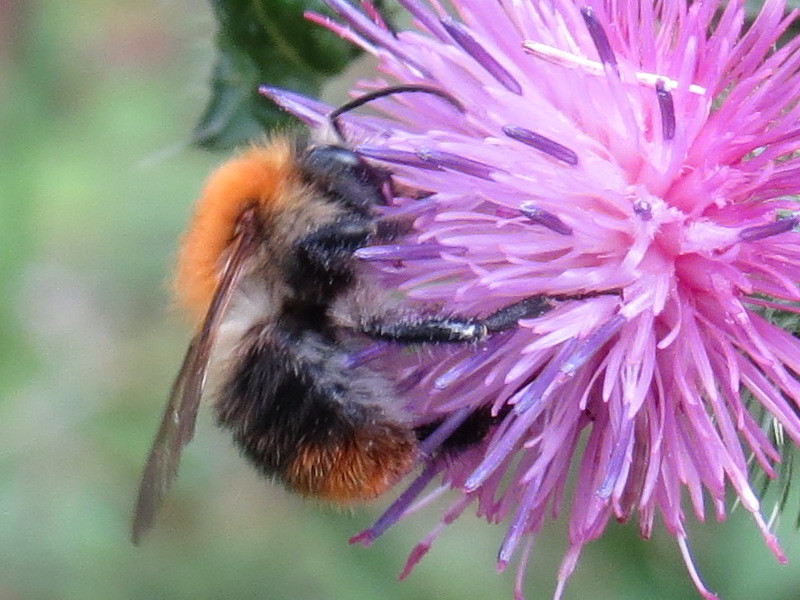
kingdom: Animalia
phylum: Arthropoda
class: Insecta
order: Hymenoptera
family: Apidae
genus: Bombus
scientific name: Bombus pascuorum
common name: Common carder bee
